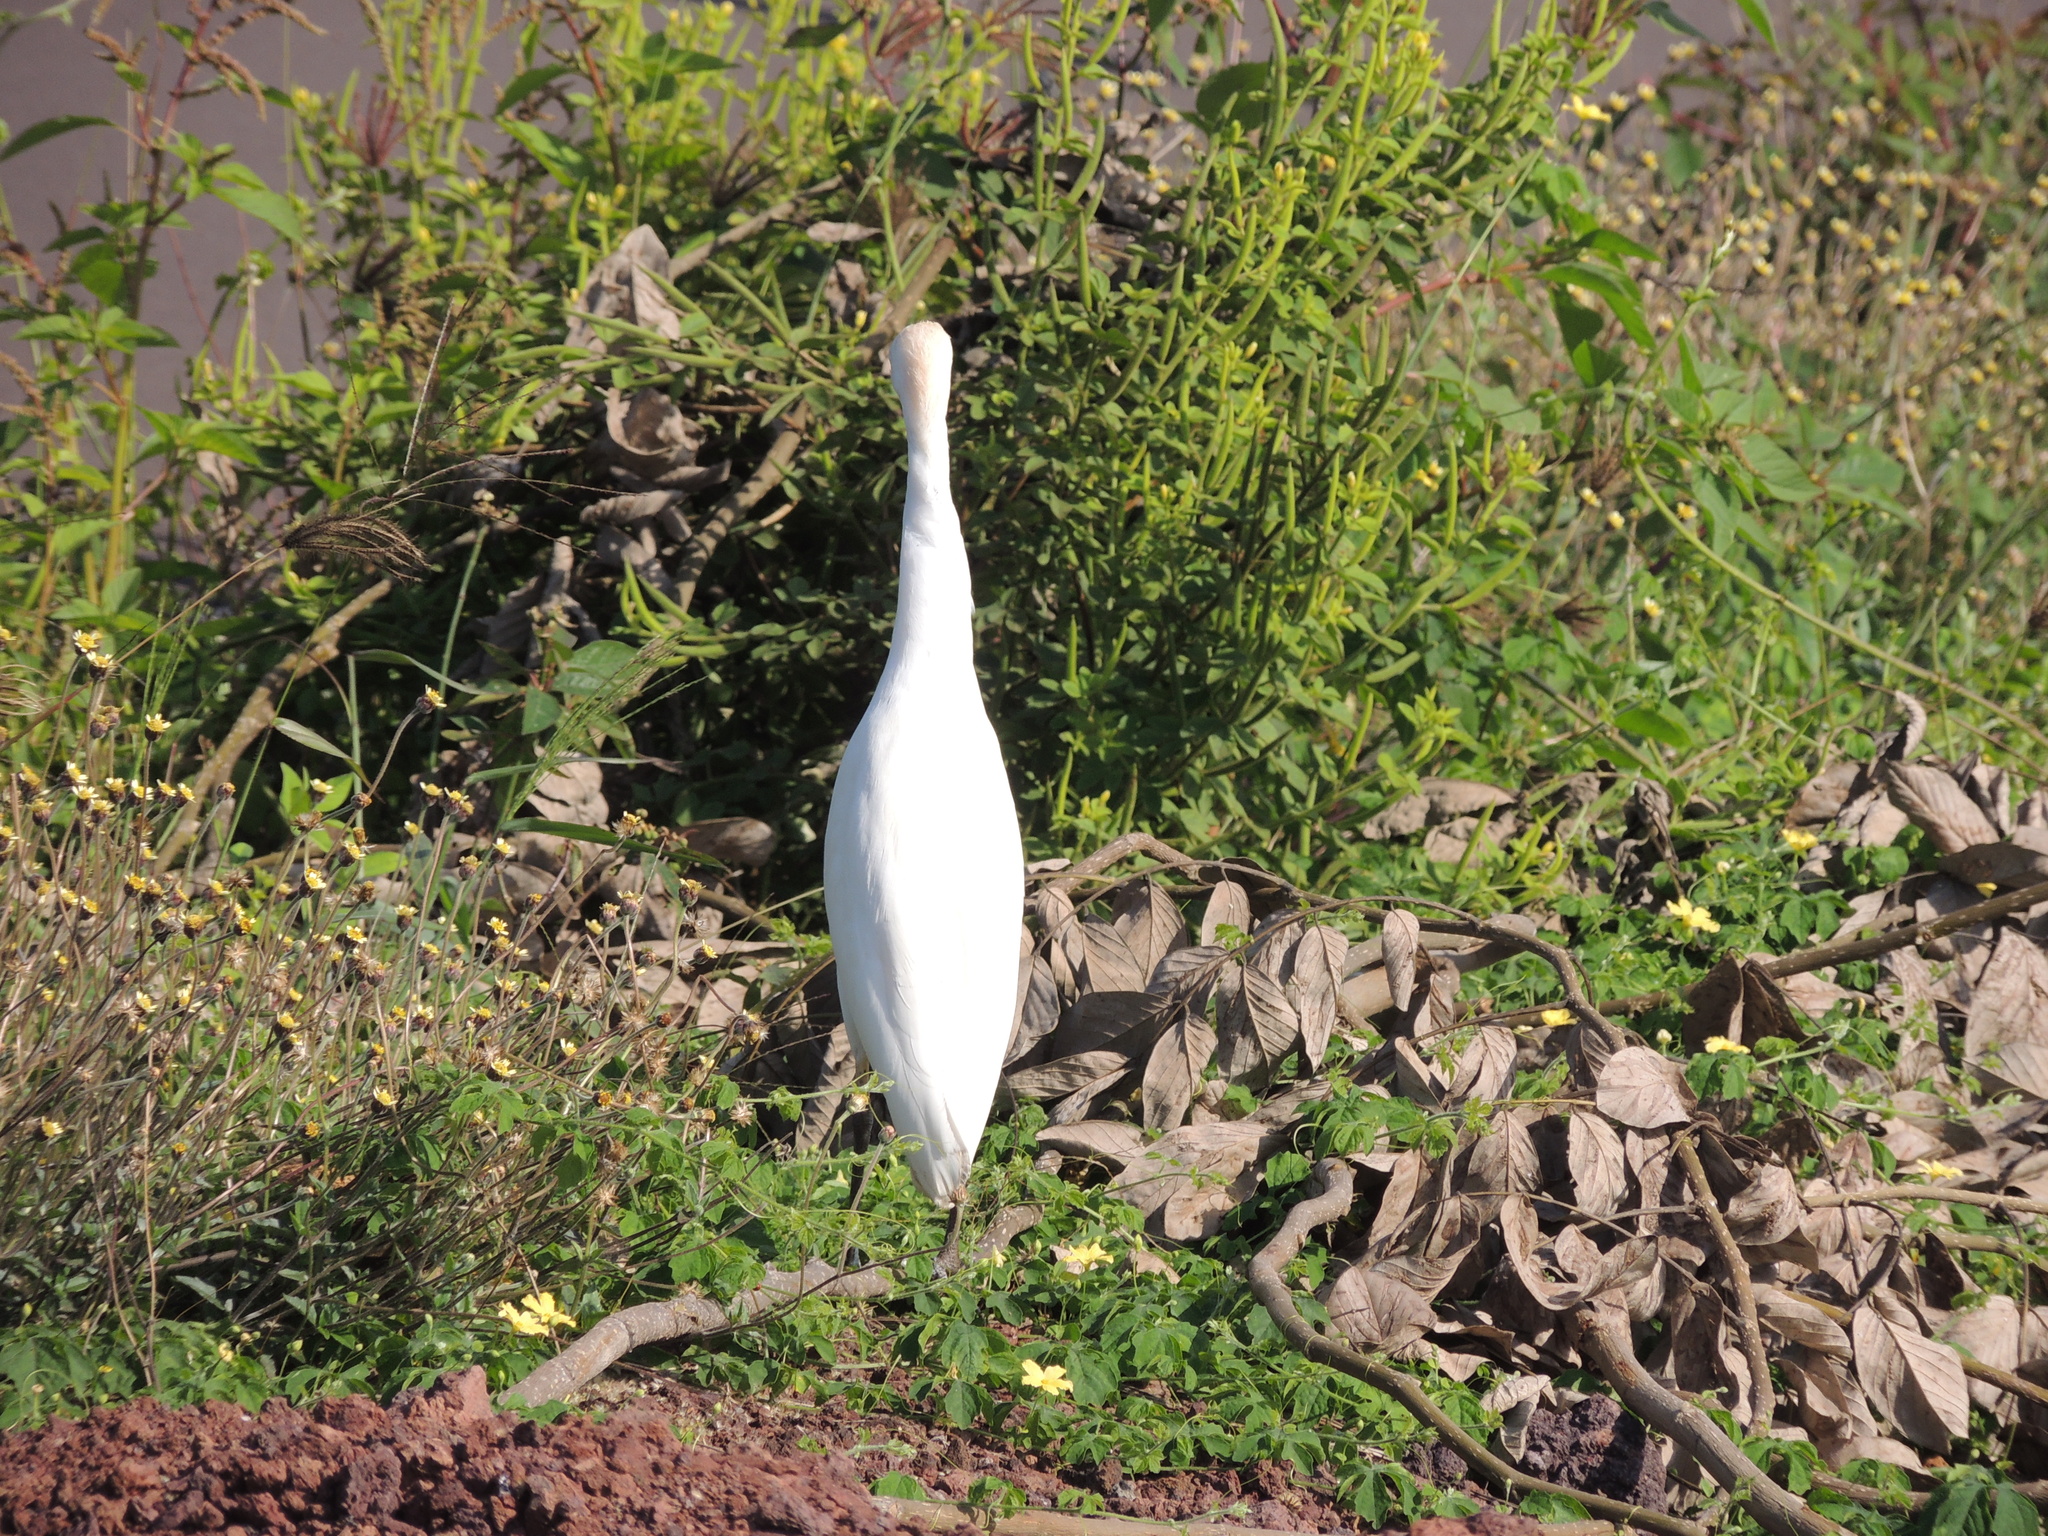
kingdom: Animalia
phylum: Chordata
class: Aves
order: Pelecaniformes
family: Ardeidae
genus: Bubulcus
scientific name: Bubulcus ibis
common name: Cattle egret
